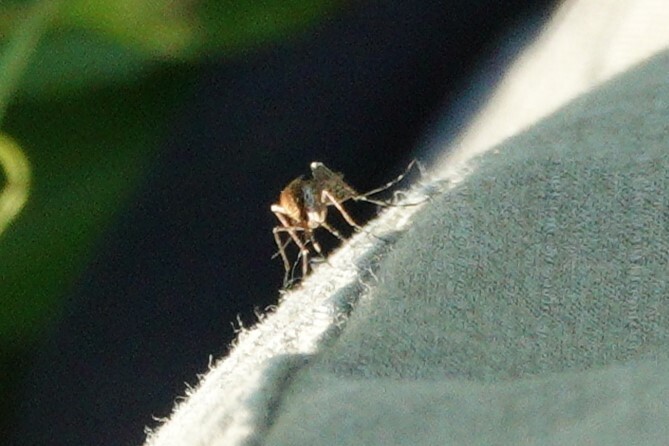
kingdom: Animalia
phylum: Arthropoda
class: Insecta
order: Diptera
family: Culicidae
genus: Aedes
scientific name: Aedes sollicitans
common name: Saltmarsh mosquito
